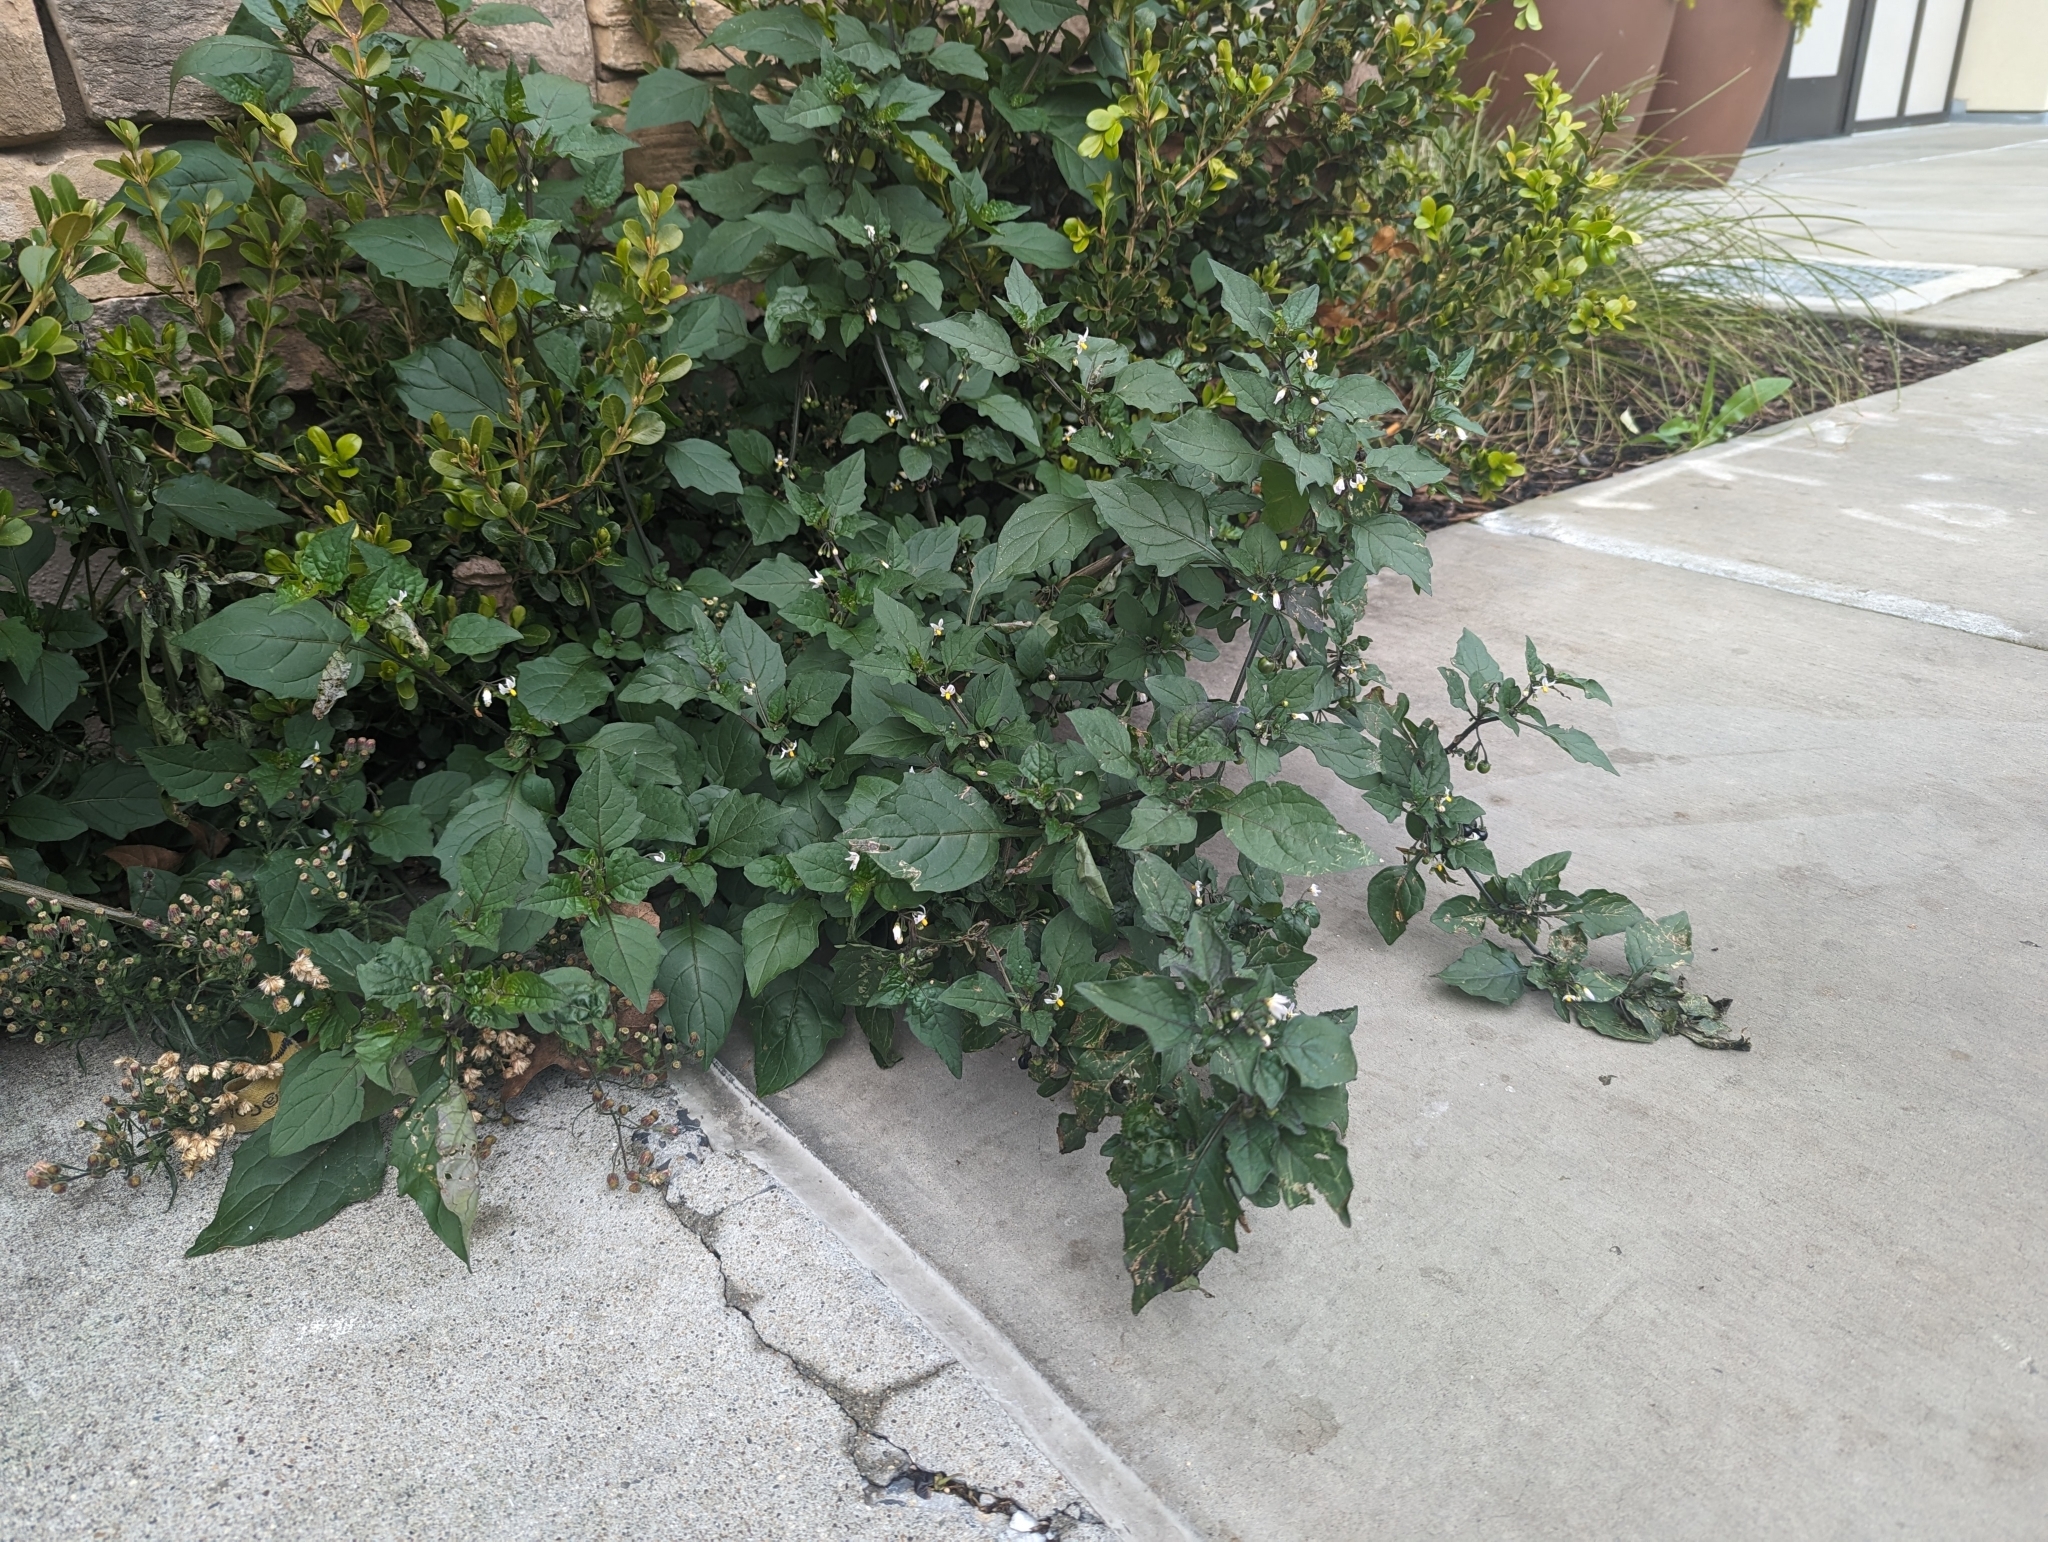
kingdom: Plantae
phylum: Tracheophyta
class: Magnoliopsida
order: Solanales
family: Solanaceae
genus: Solanum
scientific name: Solanum nigrum
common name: Black nightshade
